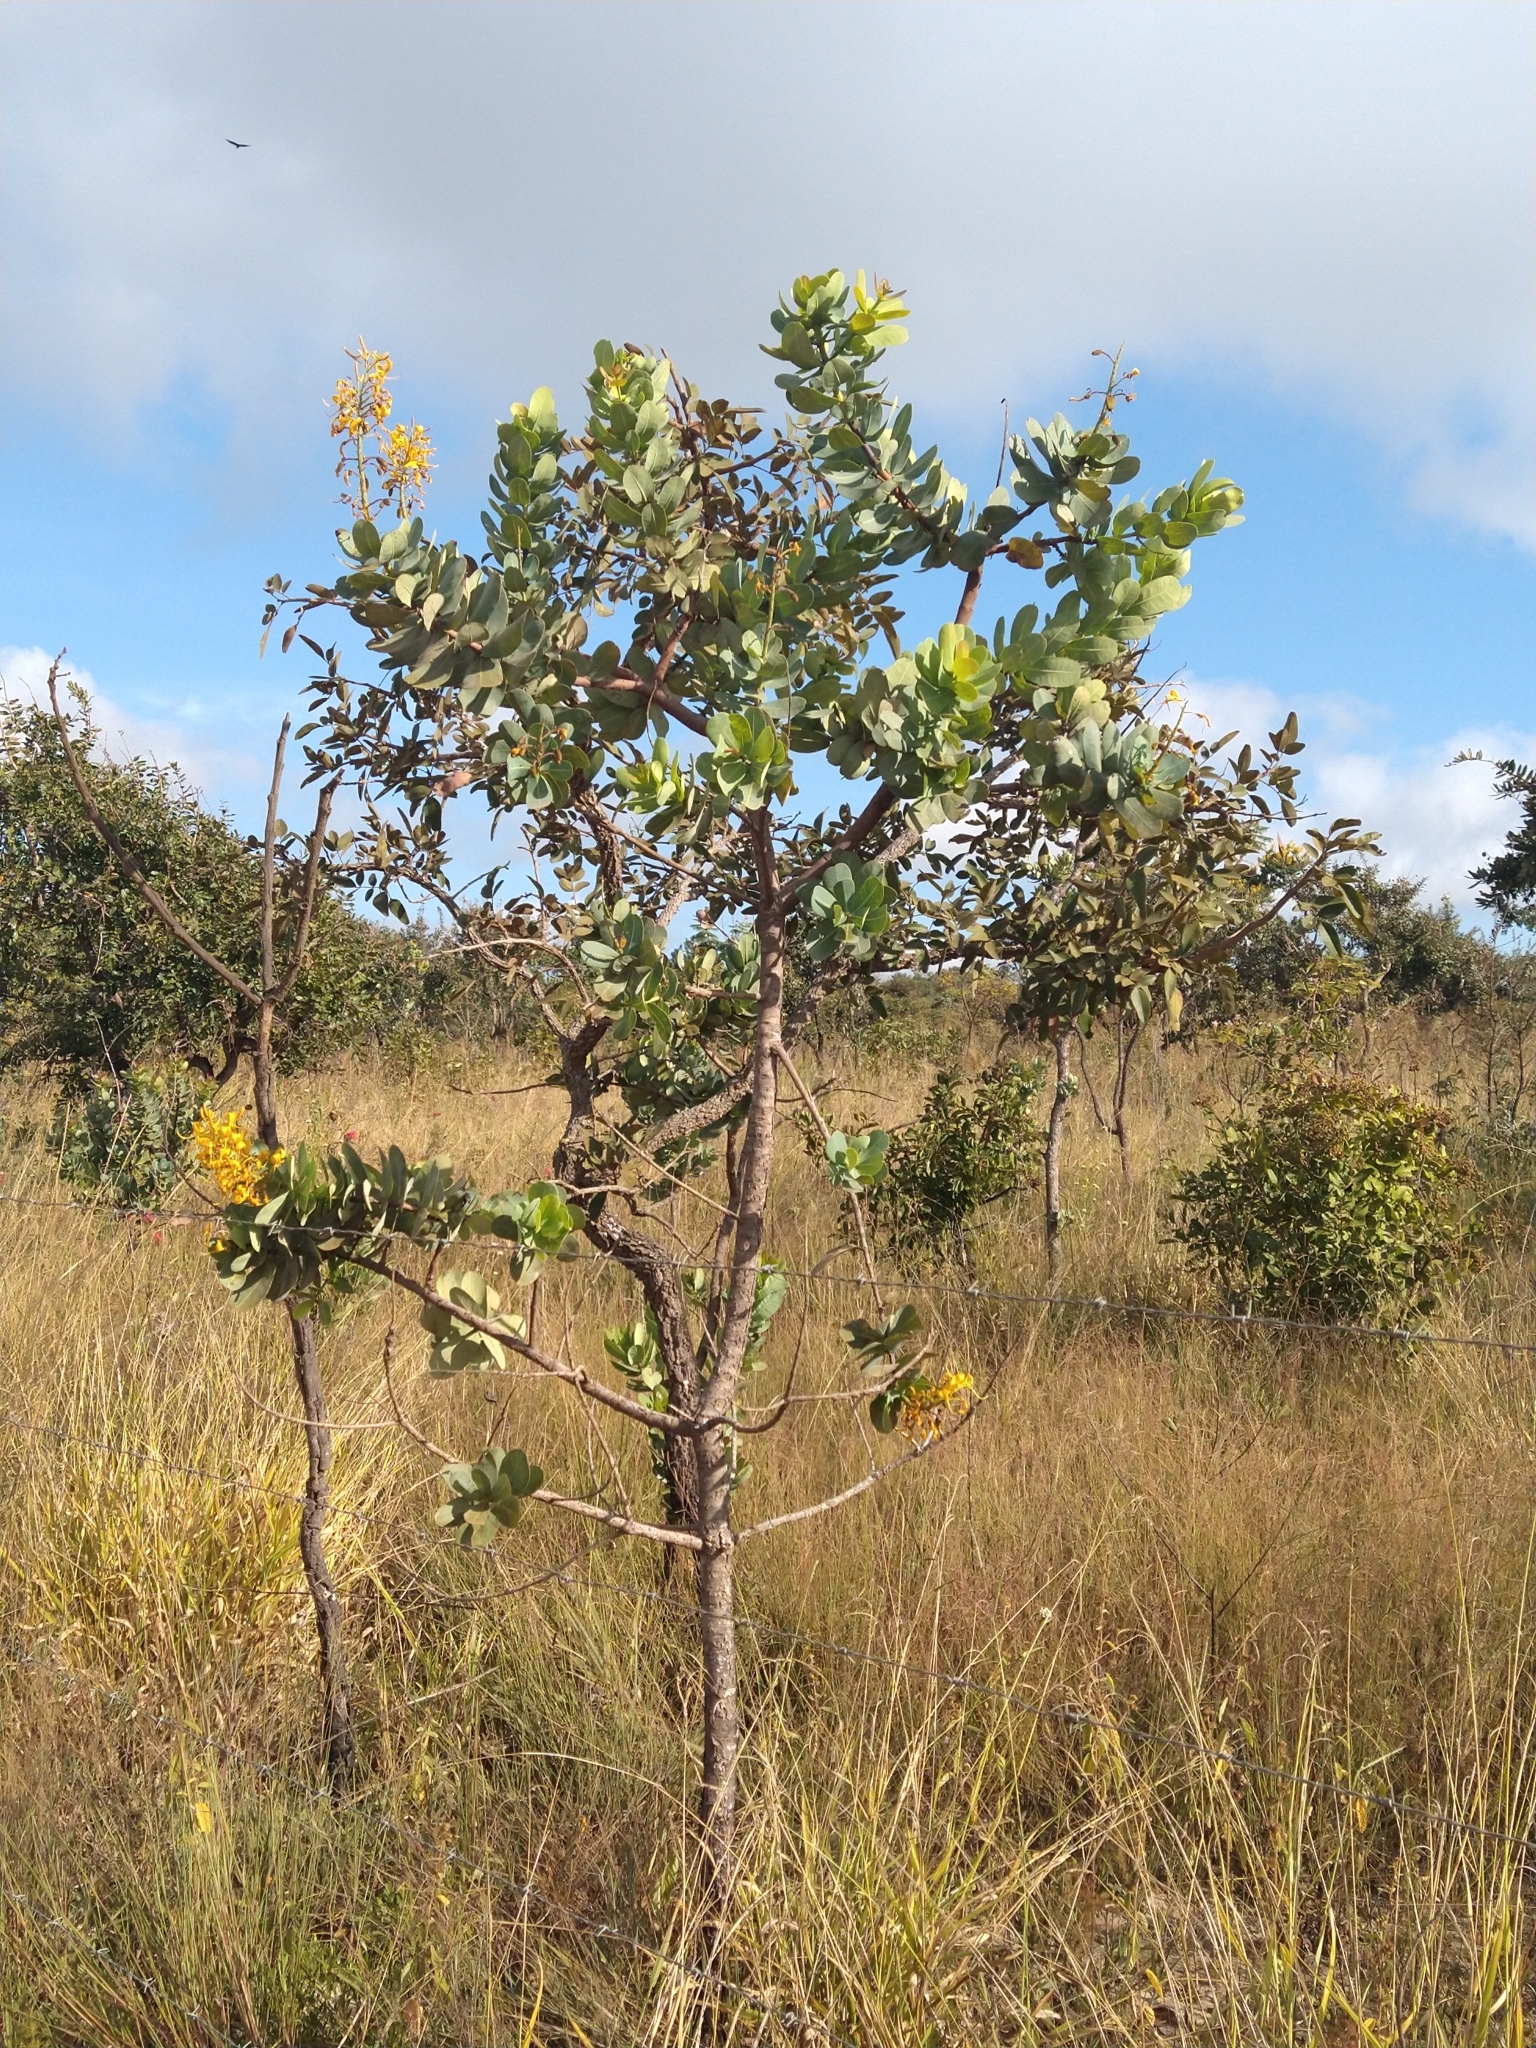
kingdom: Plantae
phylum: Tracheophyta
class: Magnoliopsida
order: Myrtales
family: Vochysiaceae
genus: Vochysia
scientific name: Vochysia elliptica
